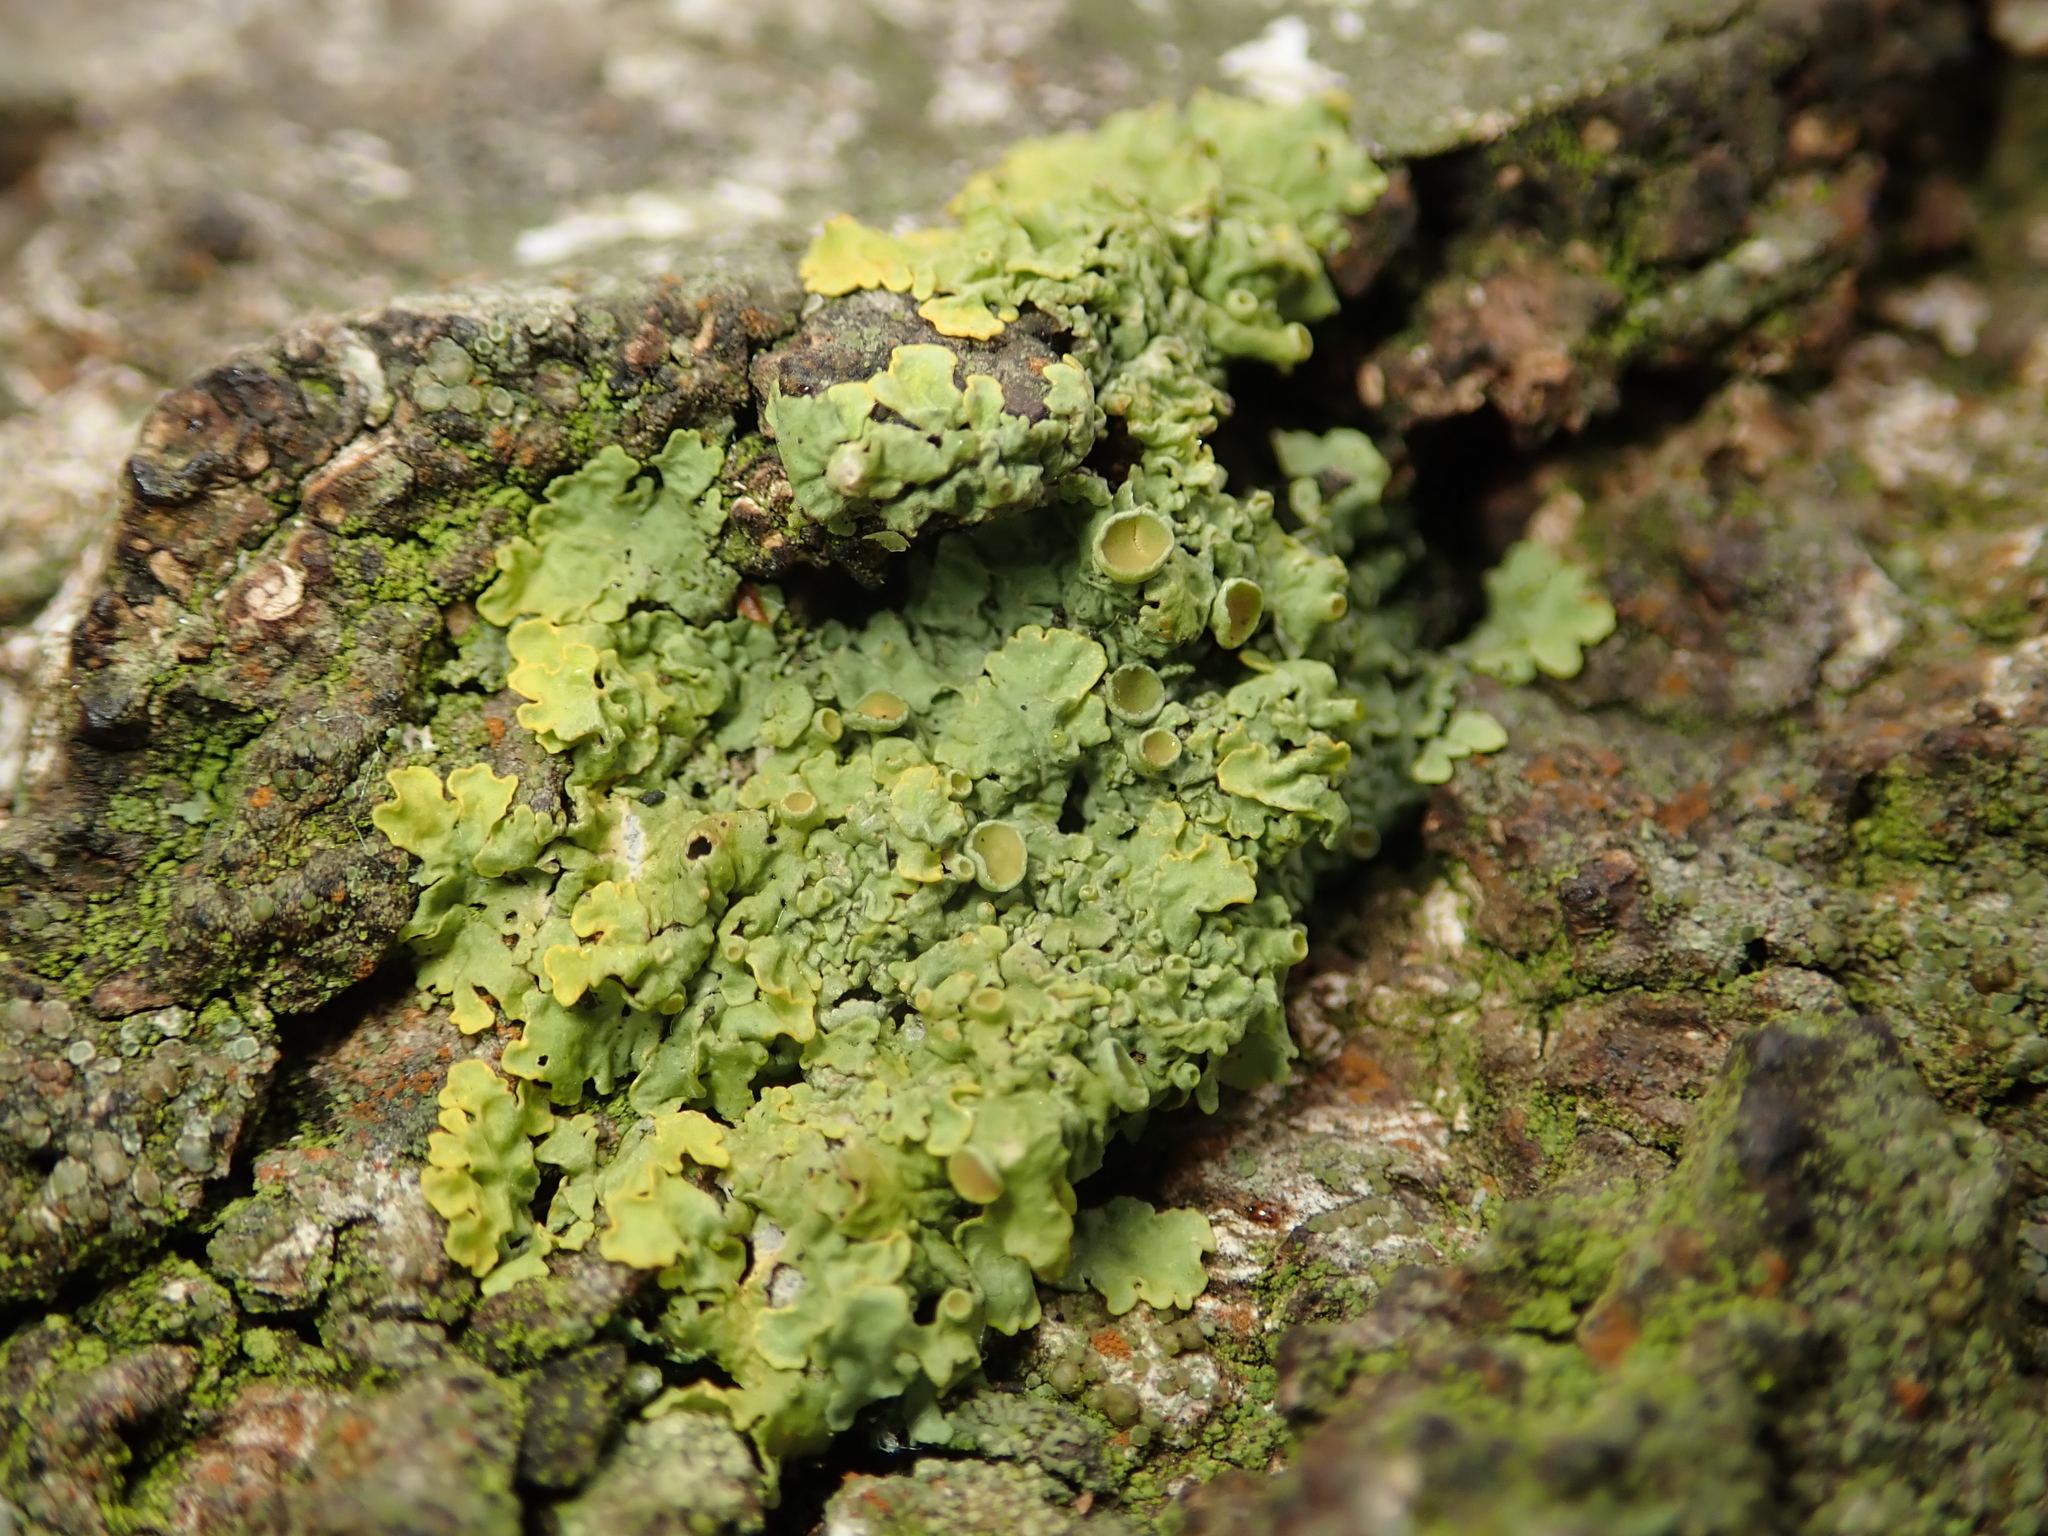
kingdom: Fungi
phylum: Ascomycota
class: Lecanoromycetes
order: Teloschistales
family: Teloschistaceae
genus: Xanthoria
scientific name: Xanthoria parietina
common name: Common orange lichen
